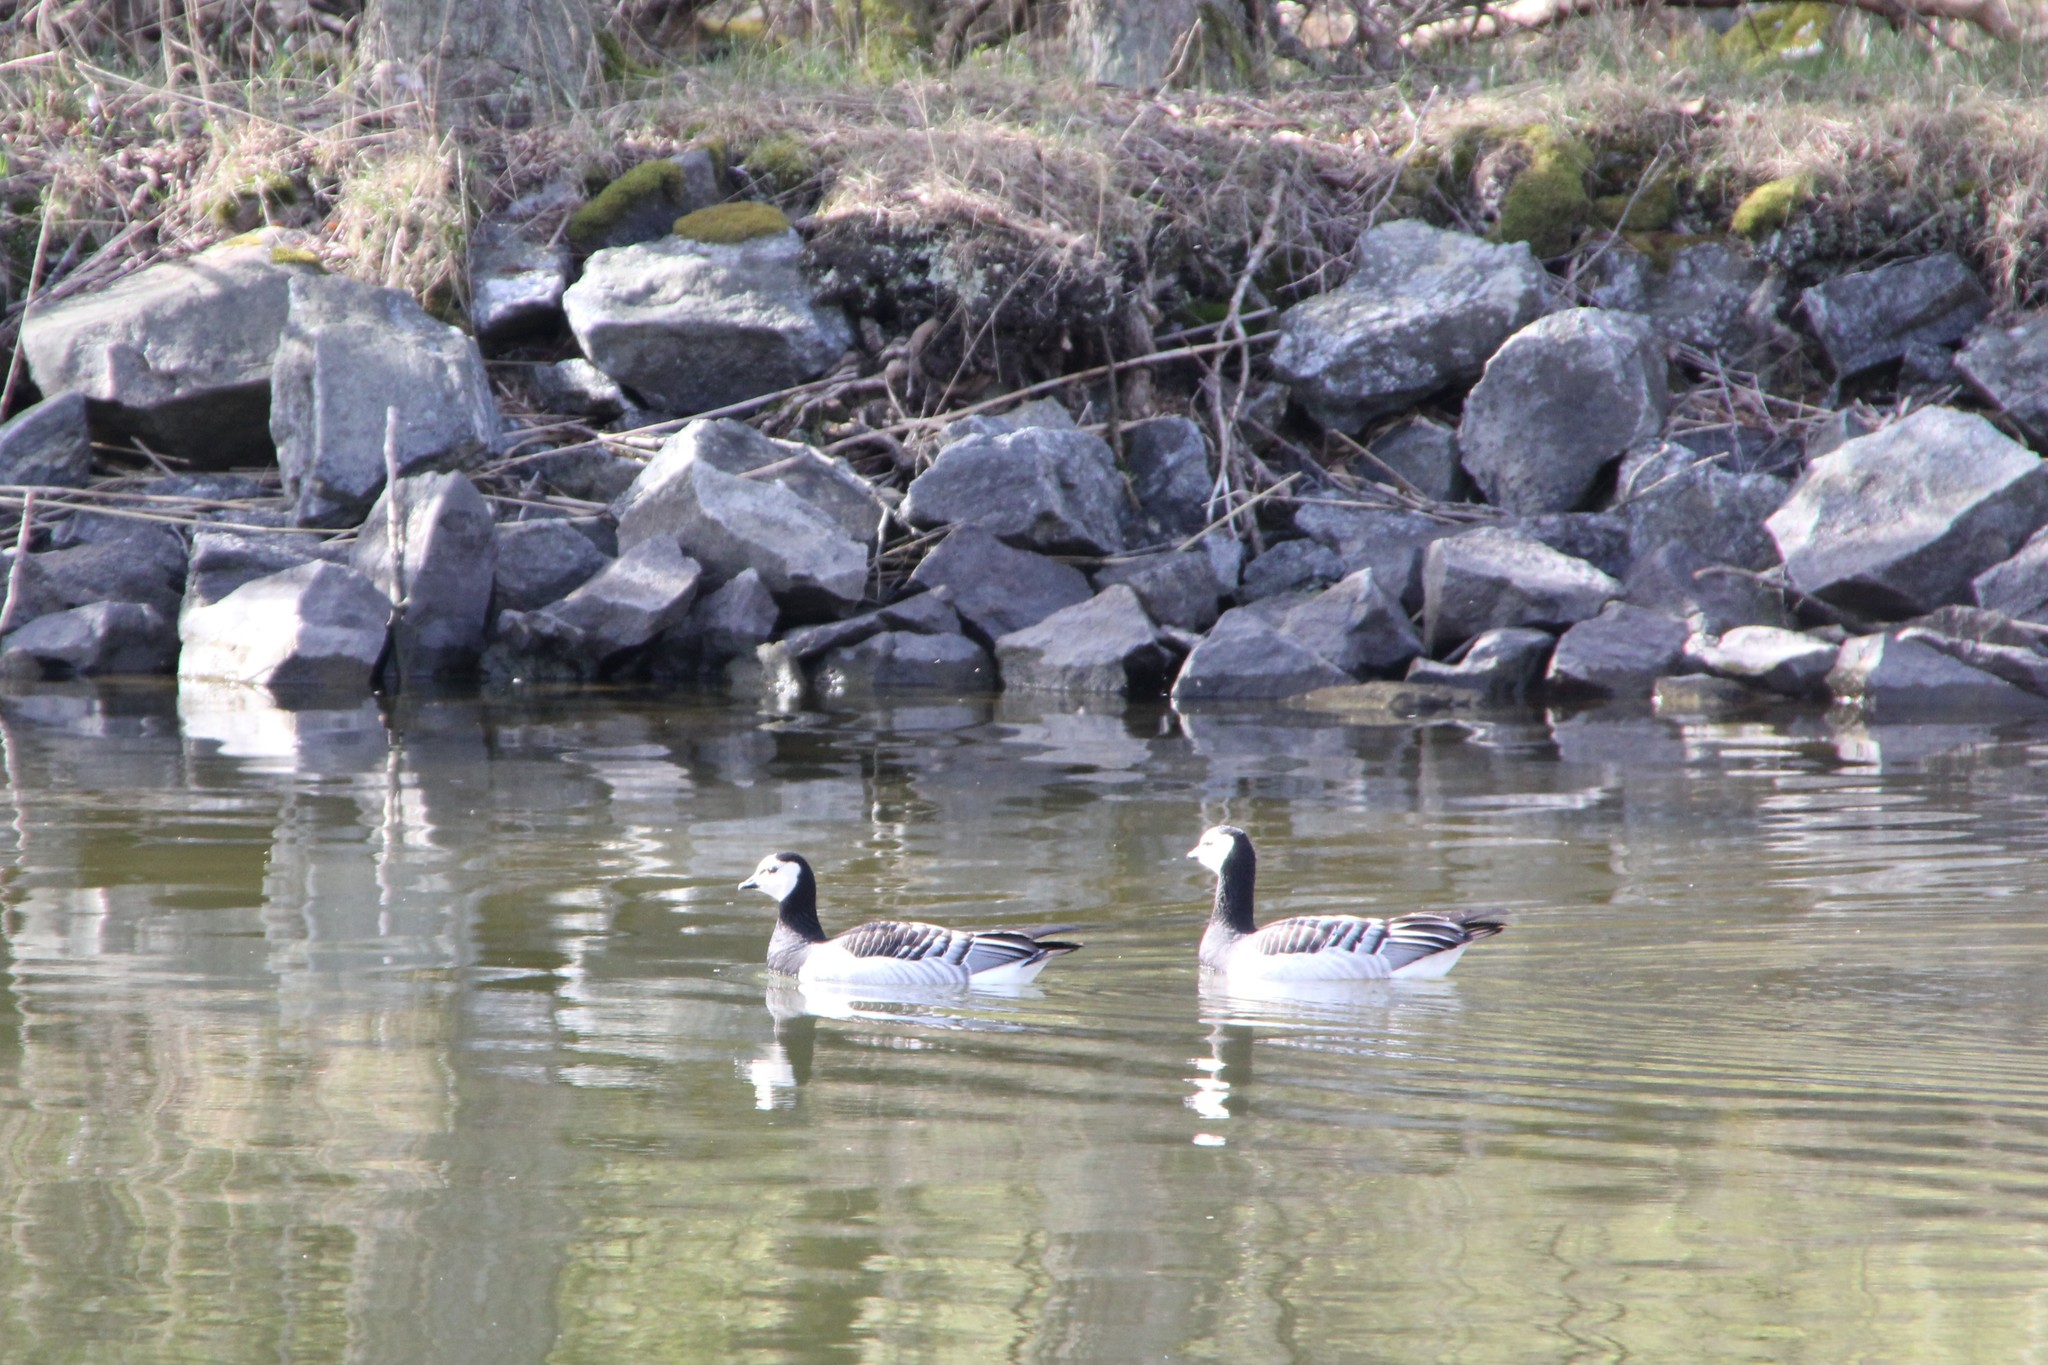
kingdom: Animalia
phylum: Chordata
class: Aves
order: Anseriformes
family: Anatidae
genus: Branta
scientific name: Branta leucopsis
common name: Barnacle goose
